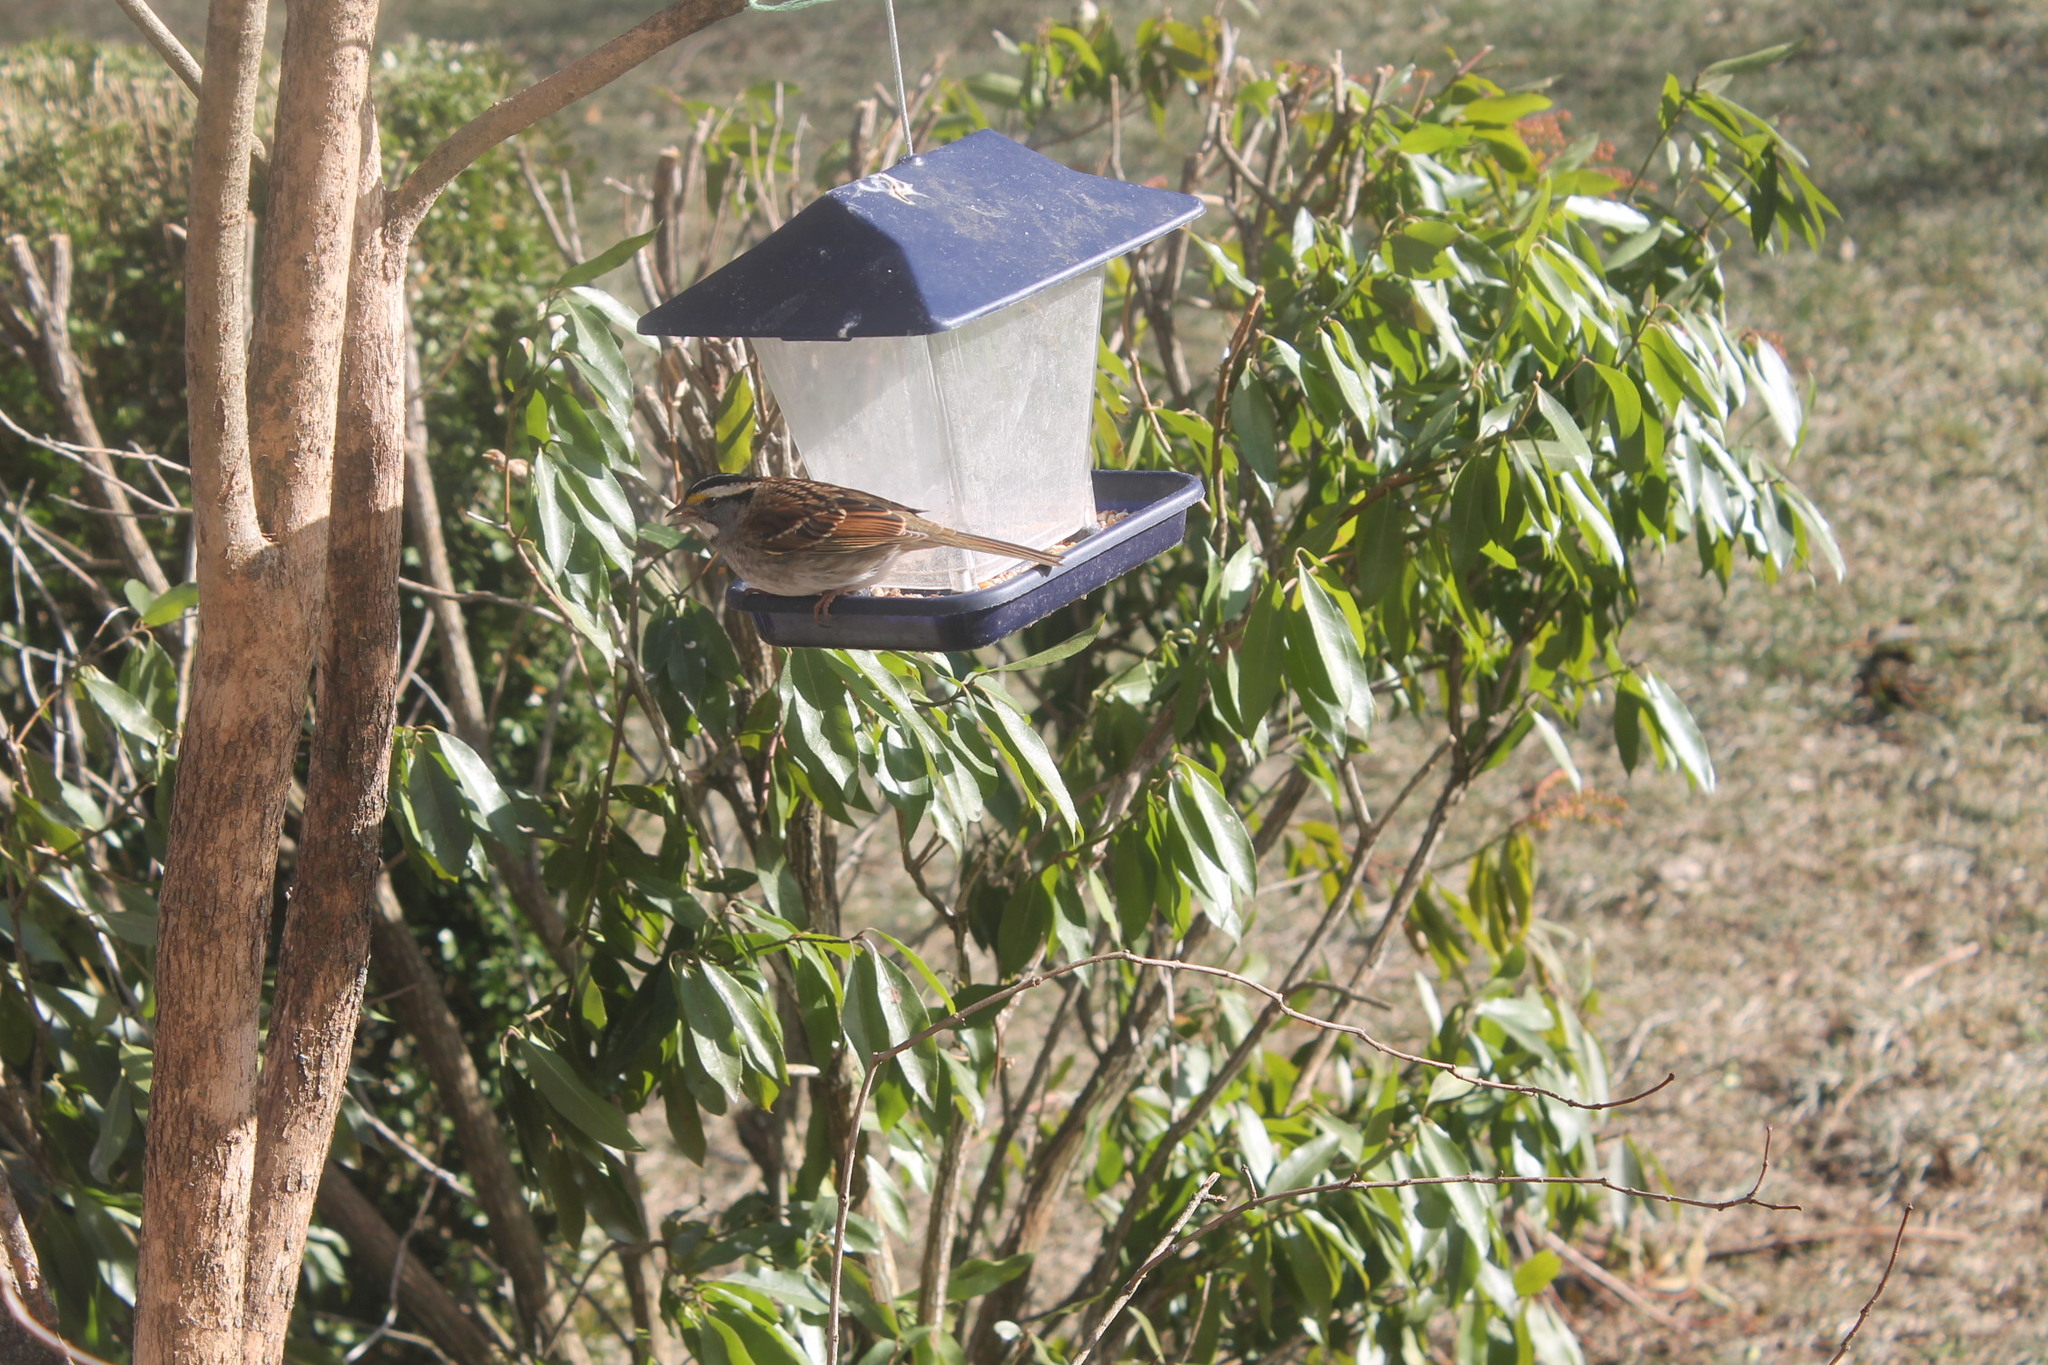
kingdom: Animalia
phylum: Chordata
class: Aves
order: Passeriformes
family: Passerellidae
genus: Zonotrichia
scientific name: Zonotrichia albicollis
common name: White-throated sparrow
